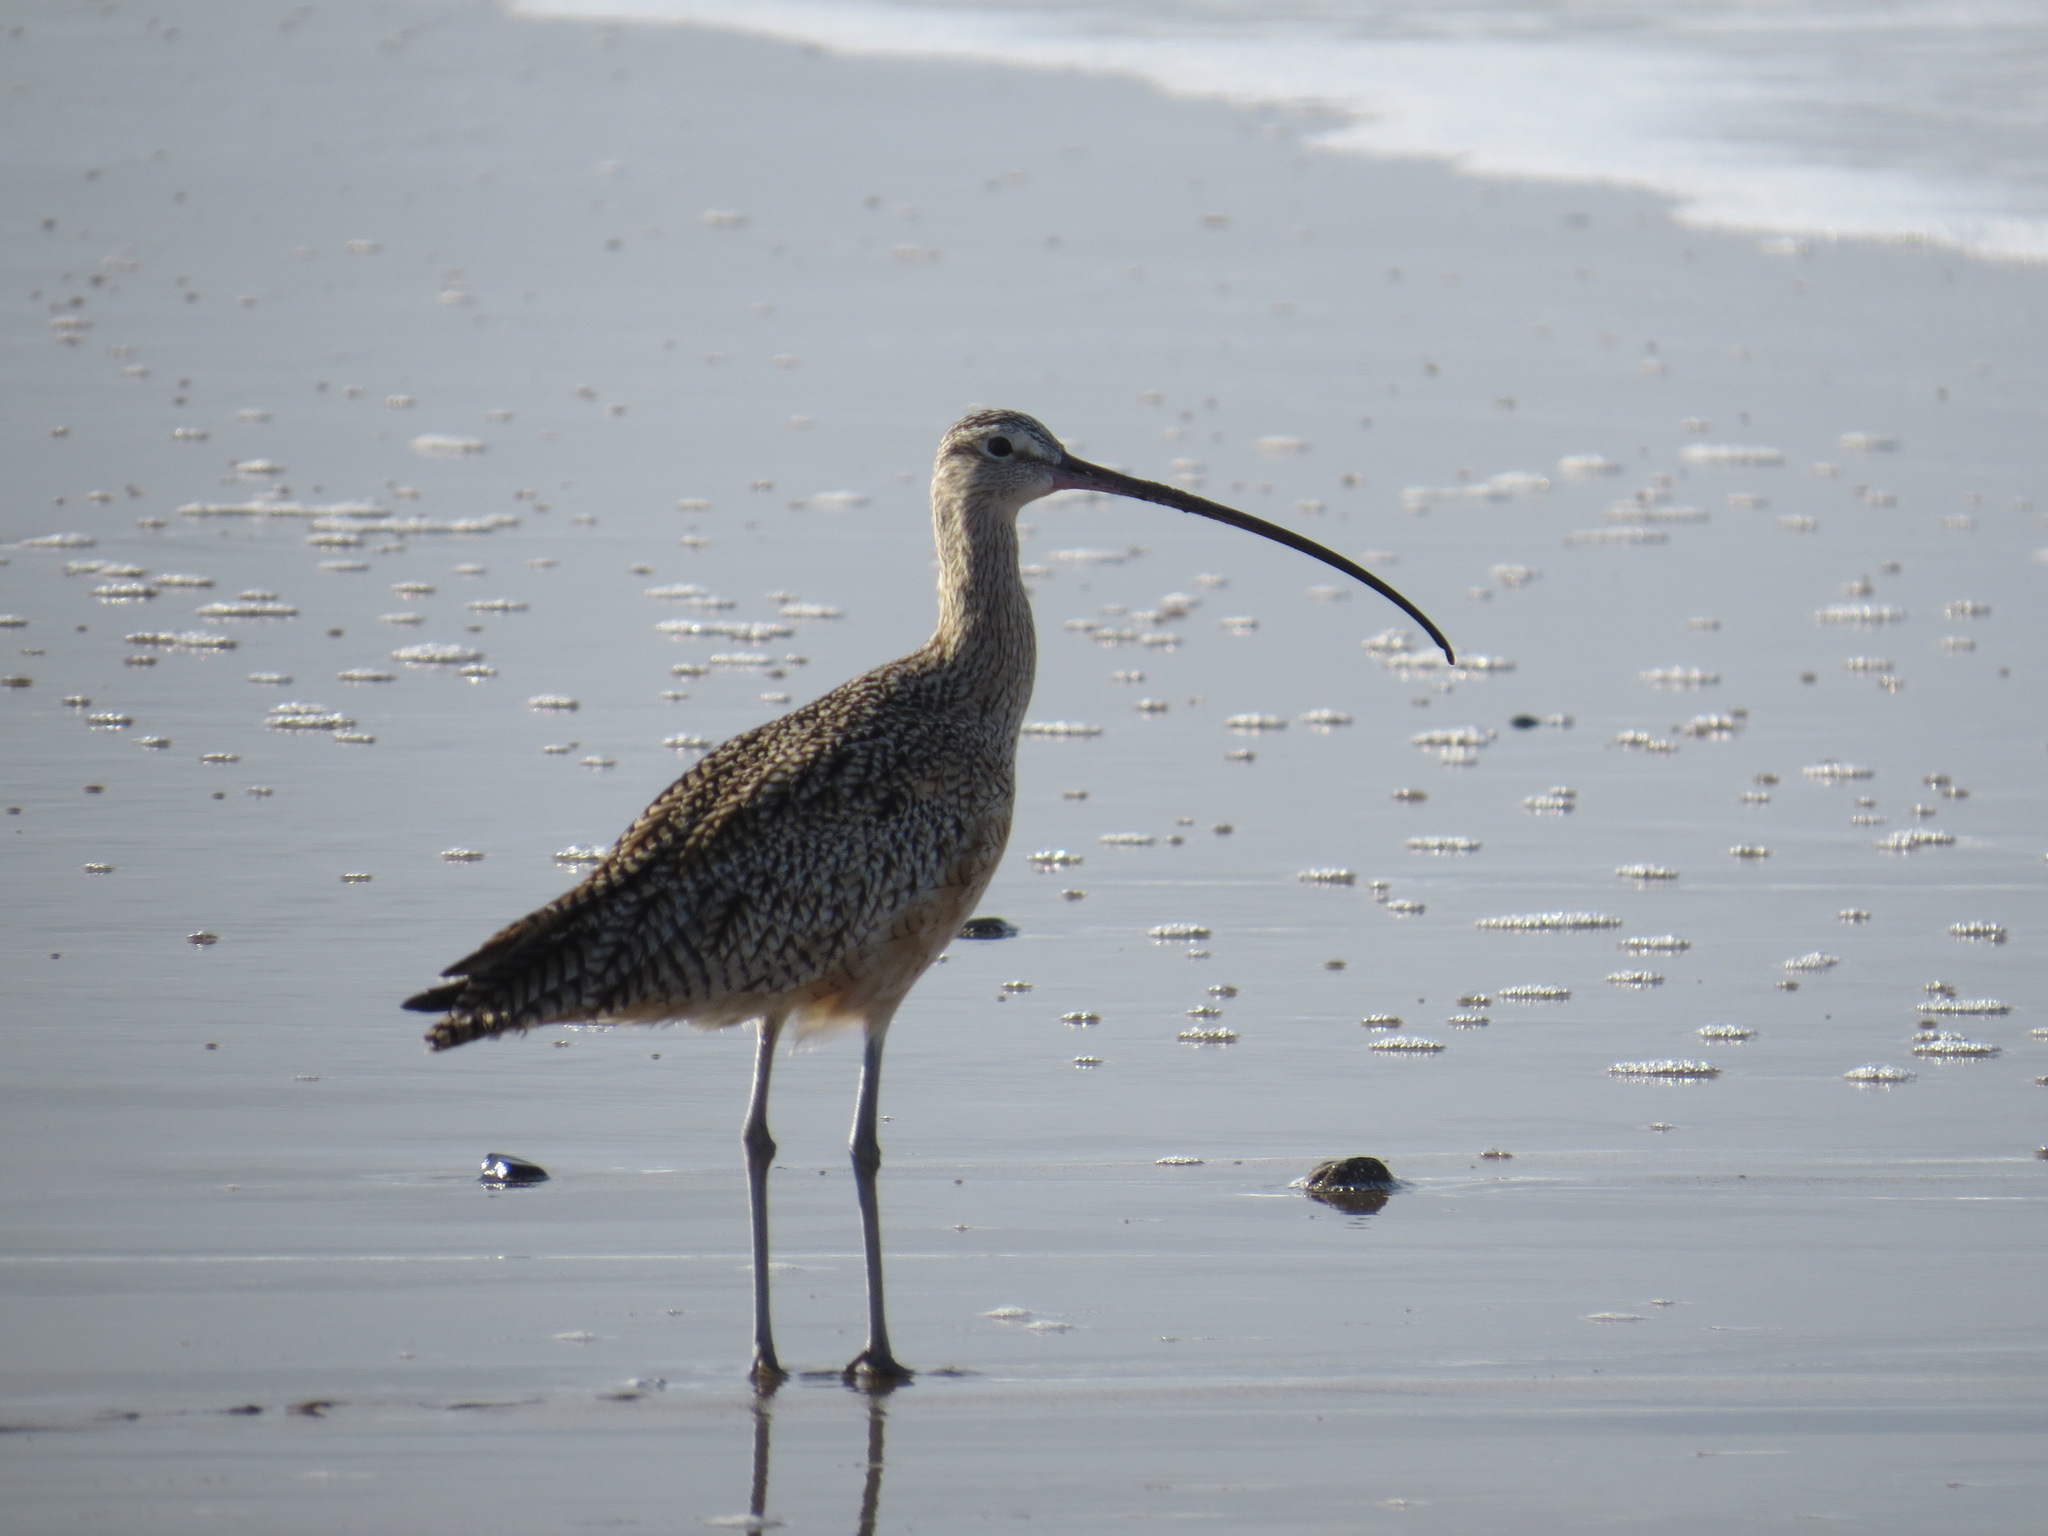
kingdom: Animalia
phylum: Chordata
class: Aves
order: Charadriiformes
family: Scolopacidae
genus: Numenius
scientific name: Numenius americanus
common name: Long-billed curlew
